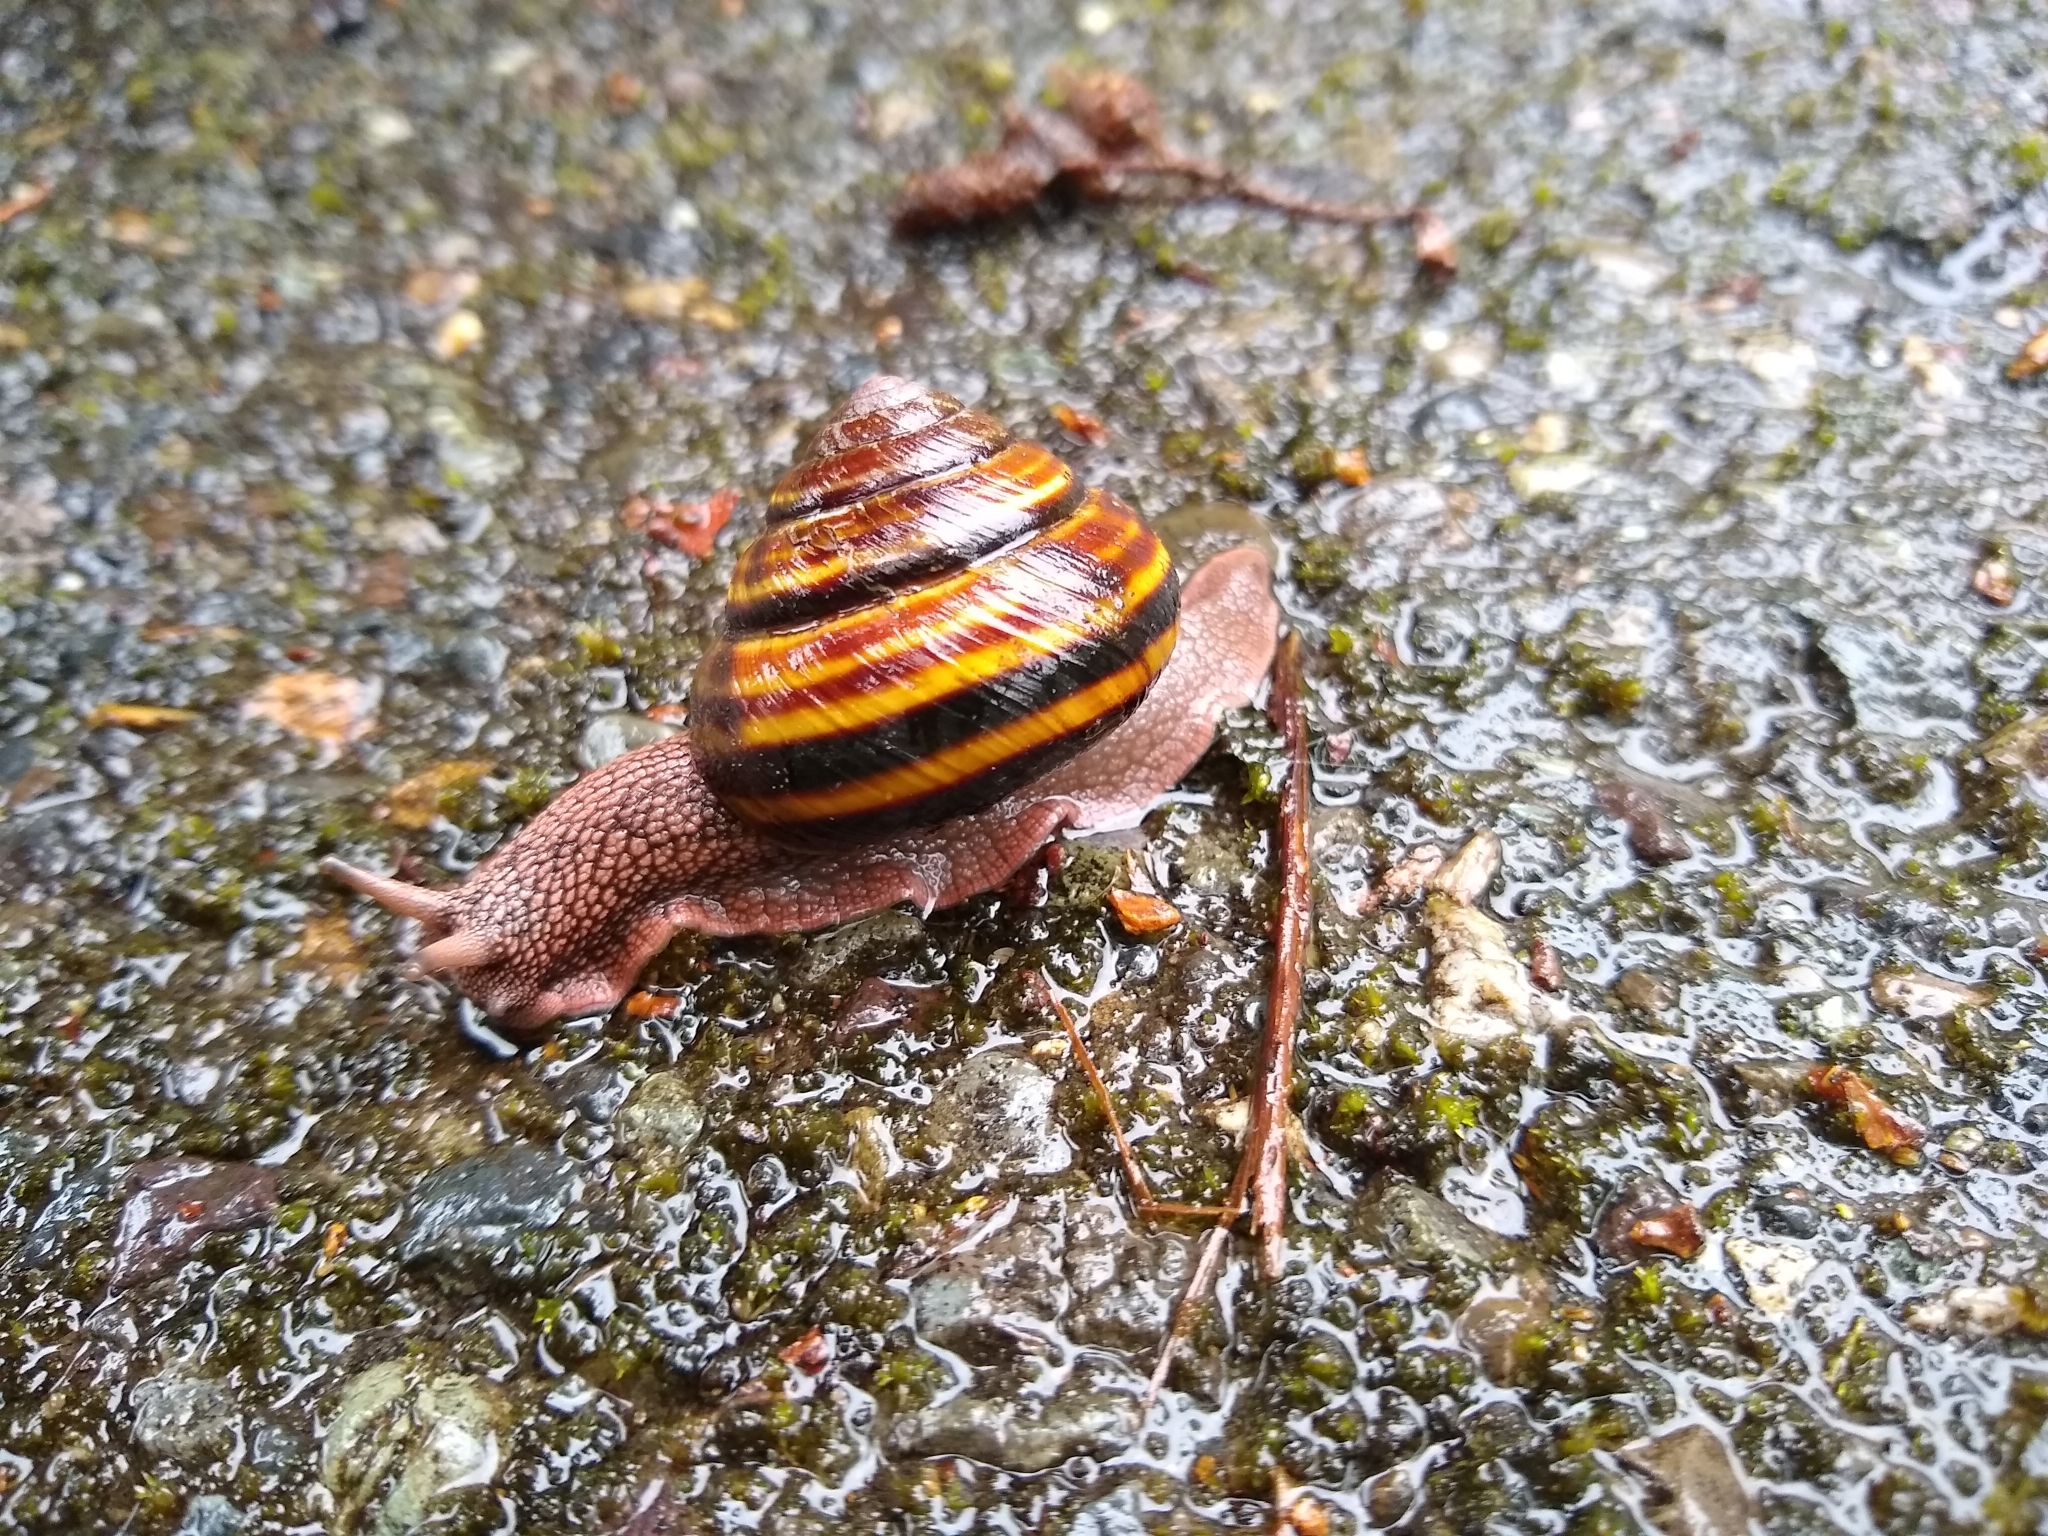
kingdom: Animalia
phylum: Mollusca
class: Gastropoda
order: Stylommatophora
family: Xanthonychidae
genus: Monadenia
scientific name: Monadenia fidelis
